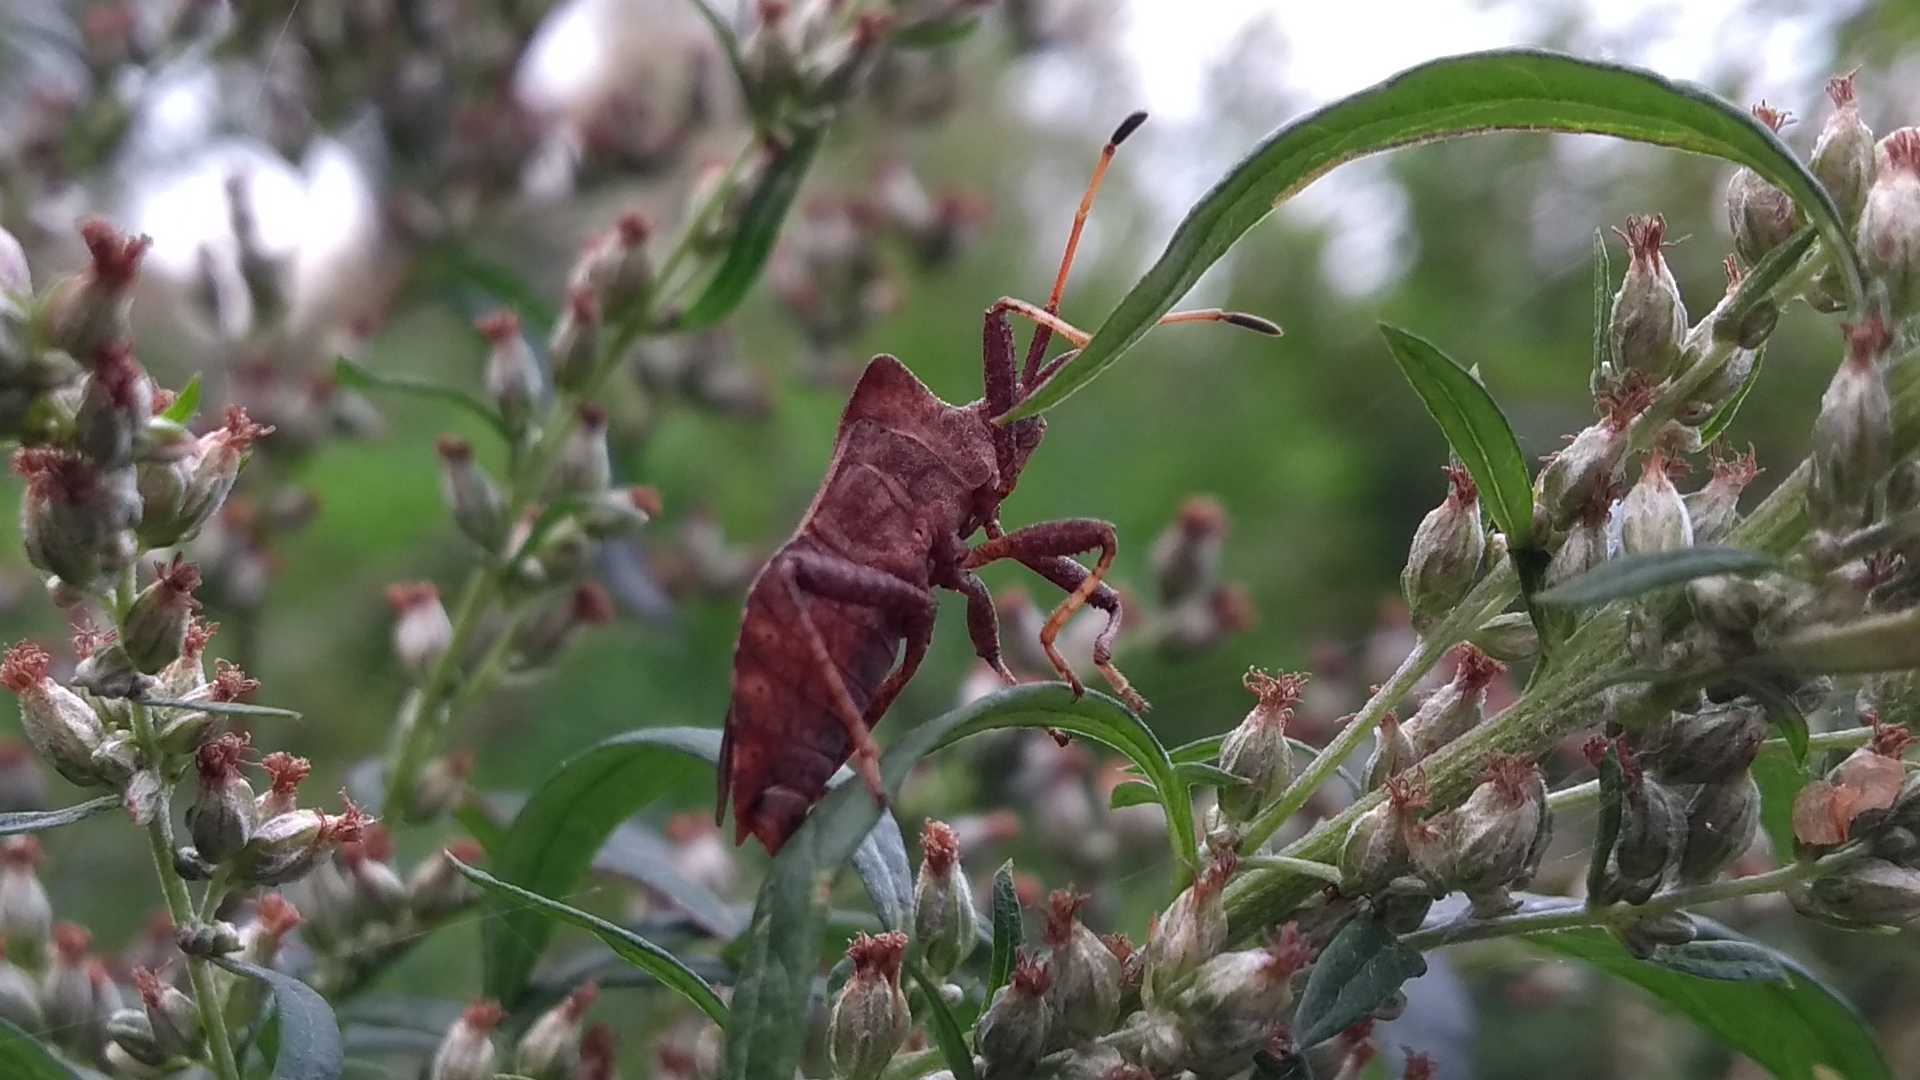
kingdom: Animalia
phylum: Arthropoda
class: Insecta
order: Hemiptera
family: Coreidae
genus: Coreus
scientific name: Coreus marginatus
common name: Dock bug
